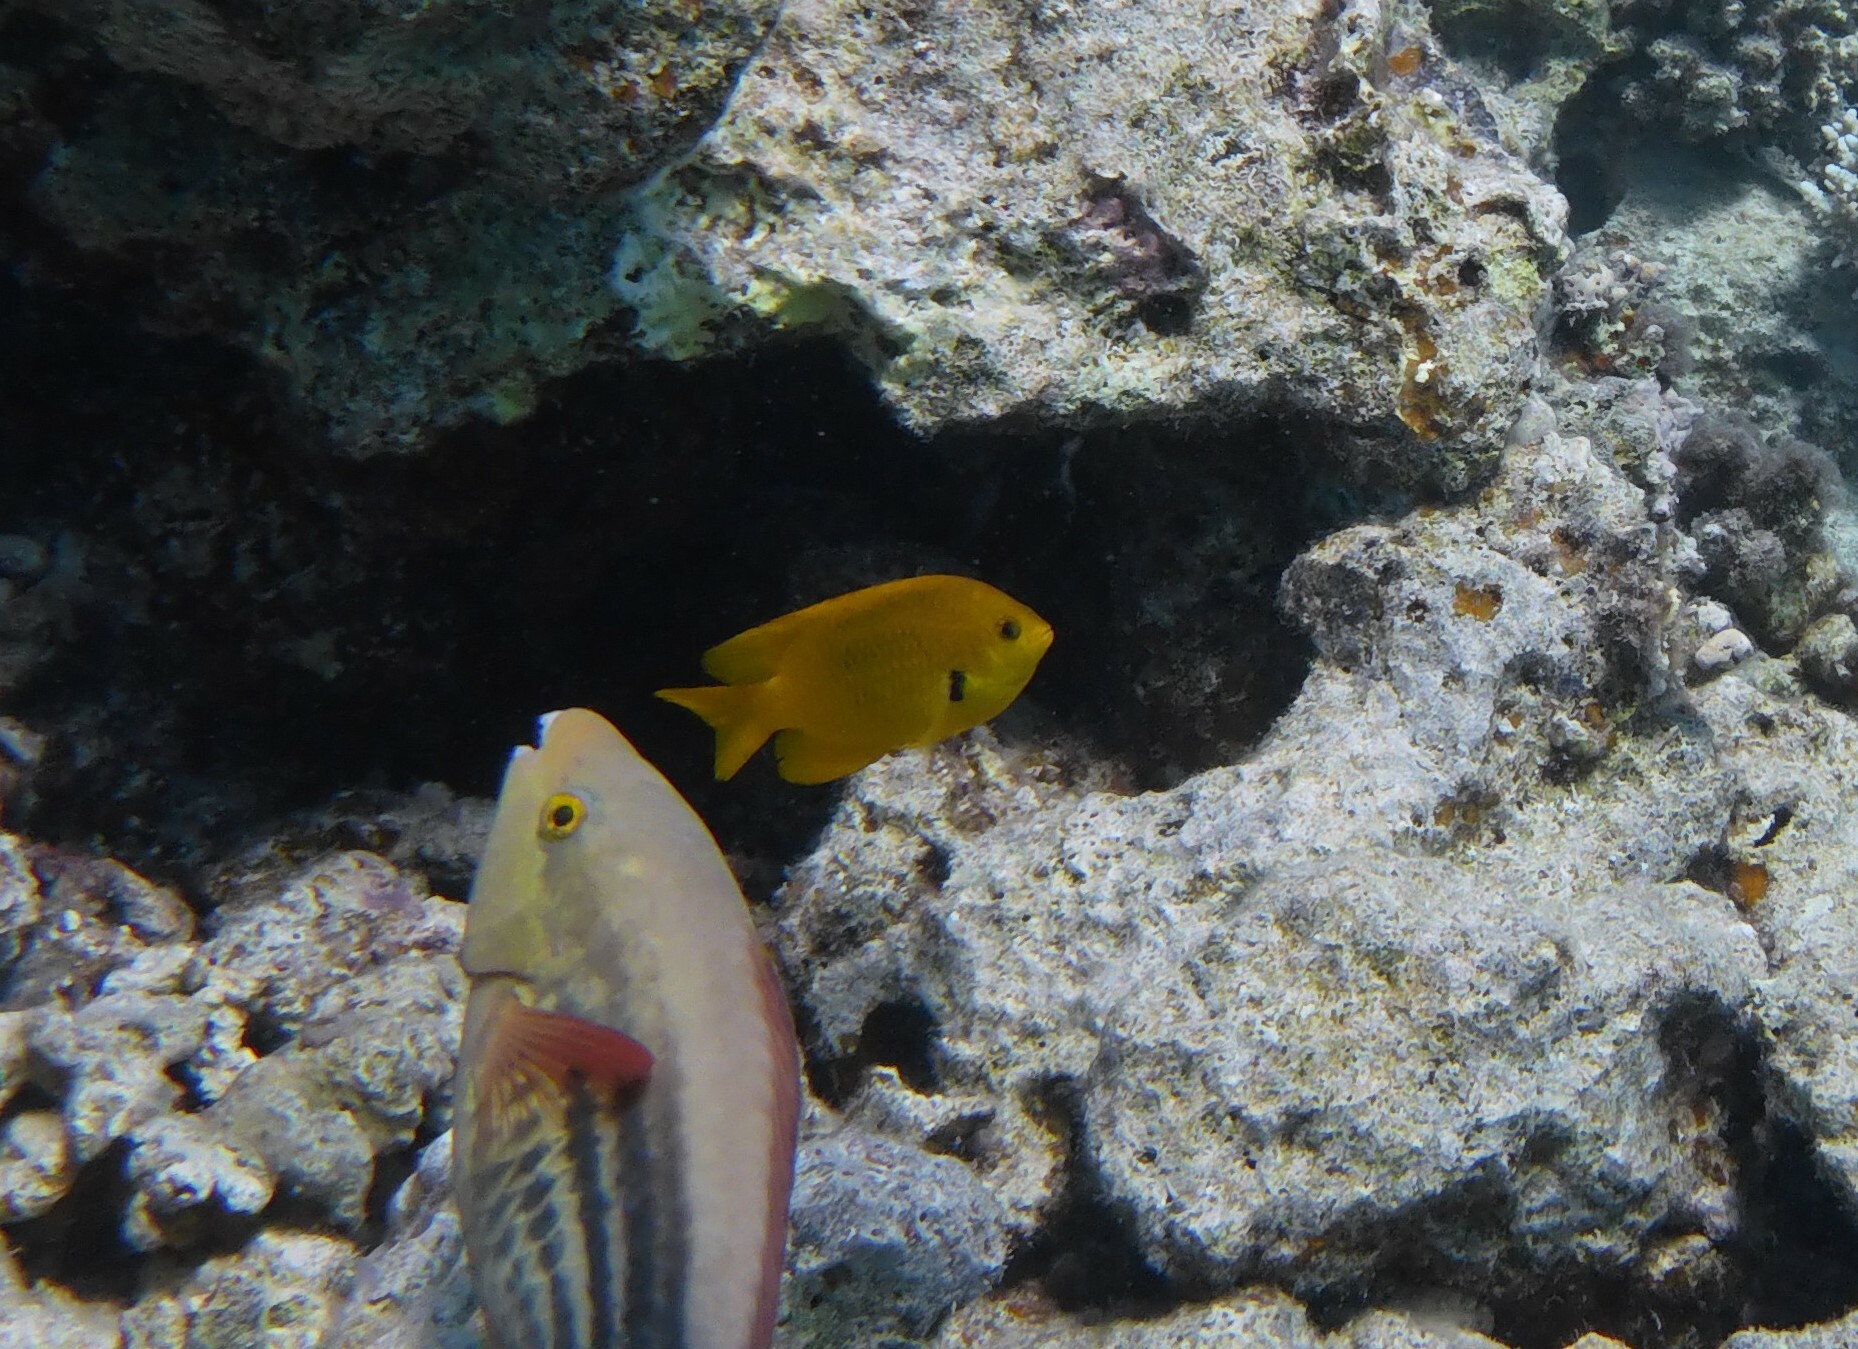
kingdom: Animalia
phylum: Chordata
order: Perciformes
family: Pomacentridae
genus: Pomacentrus
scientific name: Pomacentrus sulfureus
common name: Sulfur damsel
